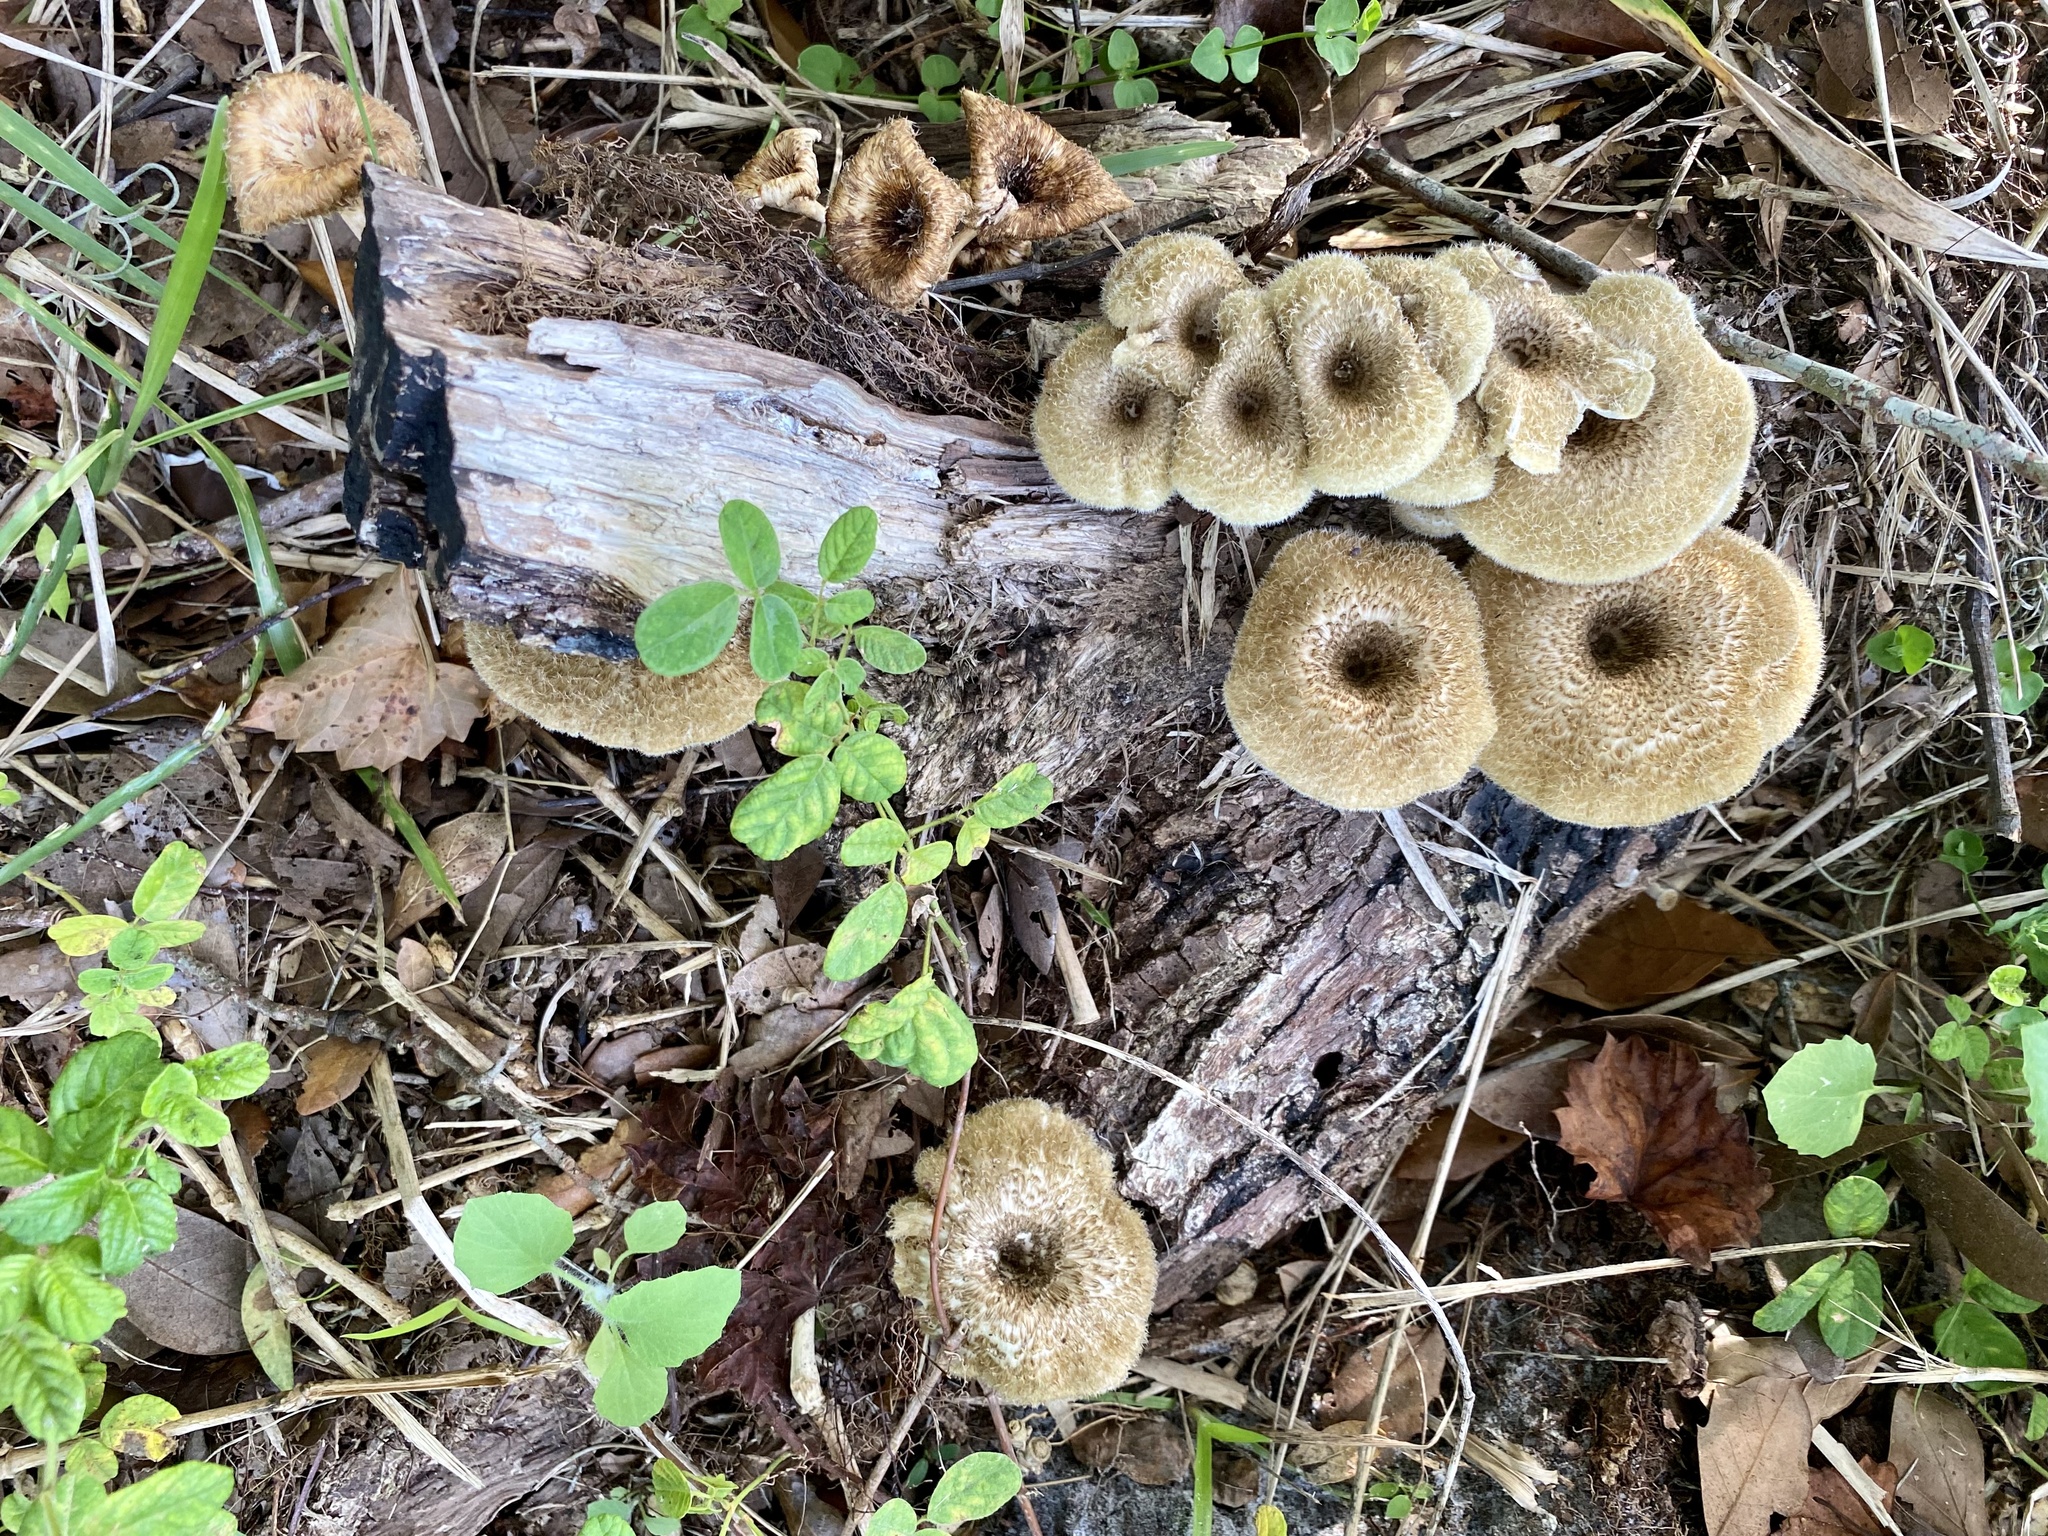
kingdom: Fungi
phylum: Basidiomycota
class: Agaricomycetes
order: Polyporales
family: Polyporaceae
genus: Lentinus
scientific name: Lentinus crinitus
